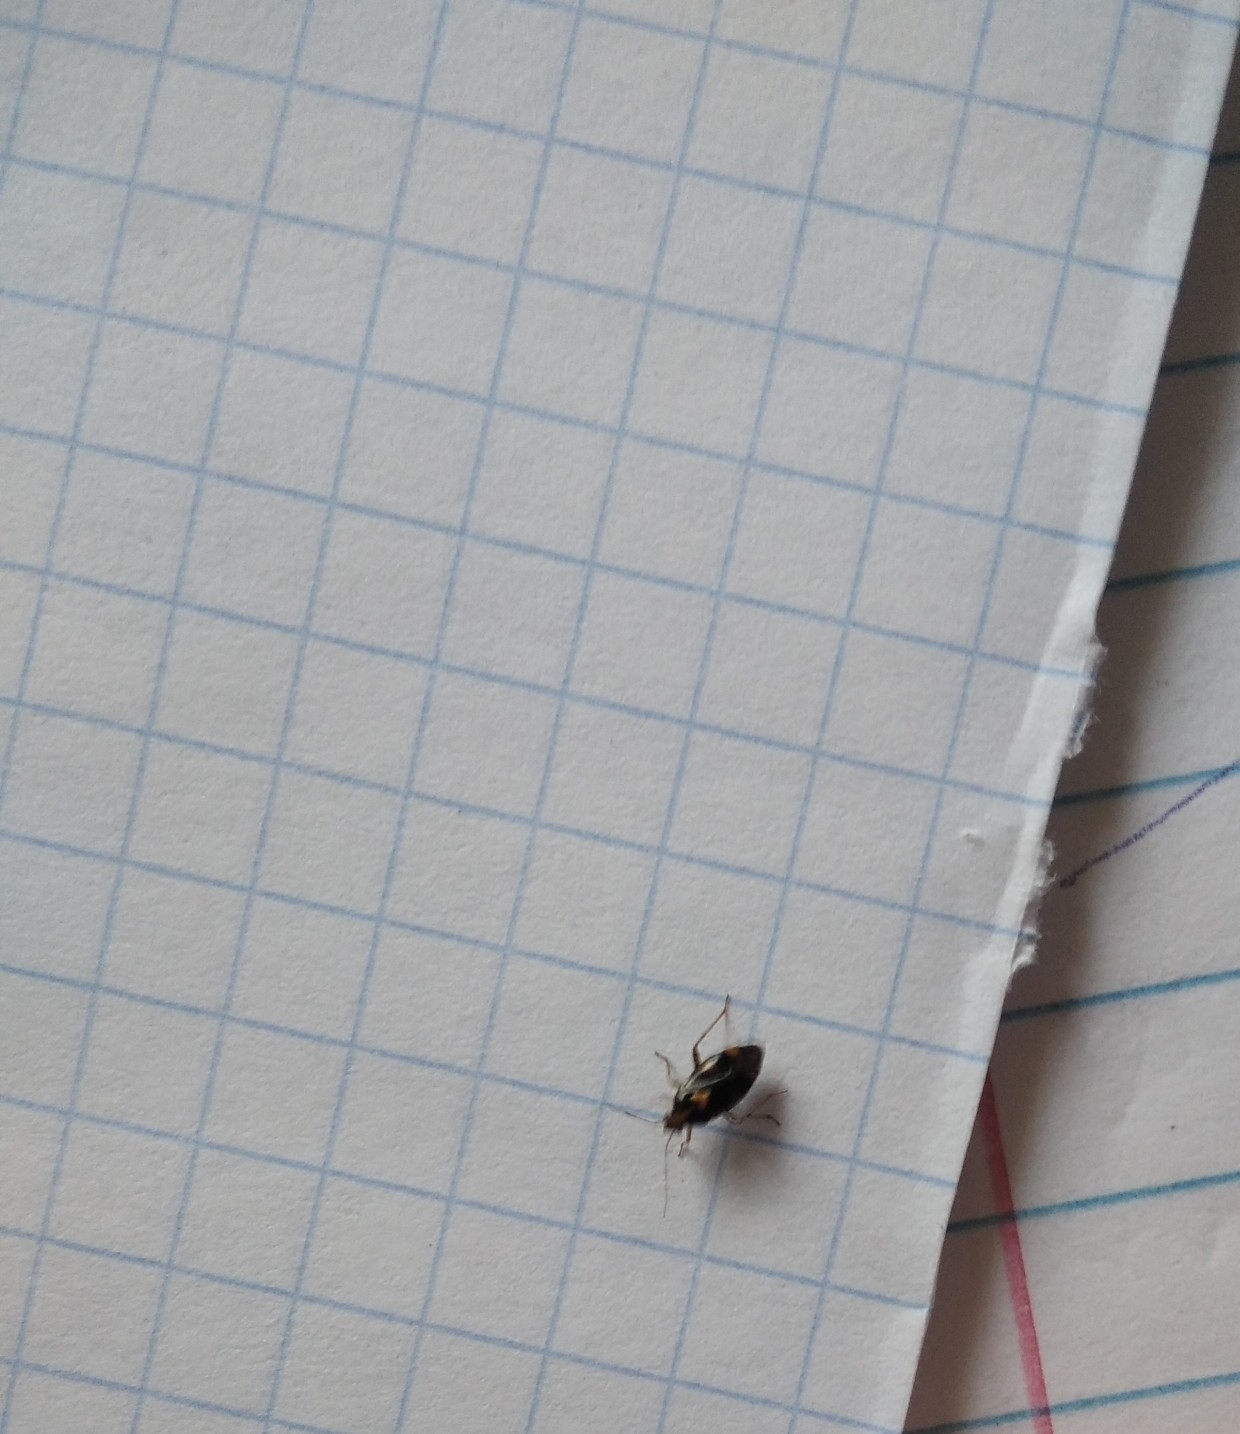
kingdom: Animalia
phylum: Arthropoda
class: Insecta
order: Hemiptera
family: Miridae
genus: Liocoris
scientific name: Liocoris tripustulatus
